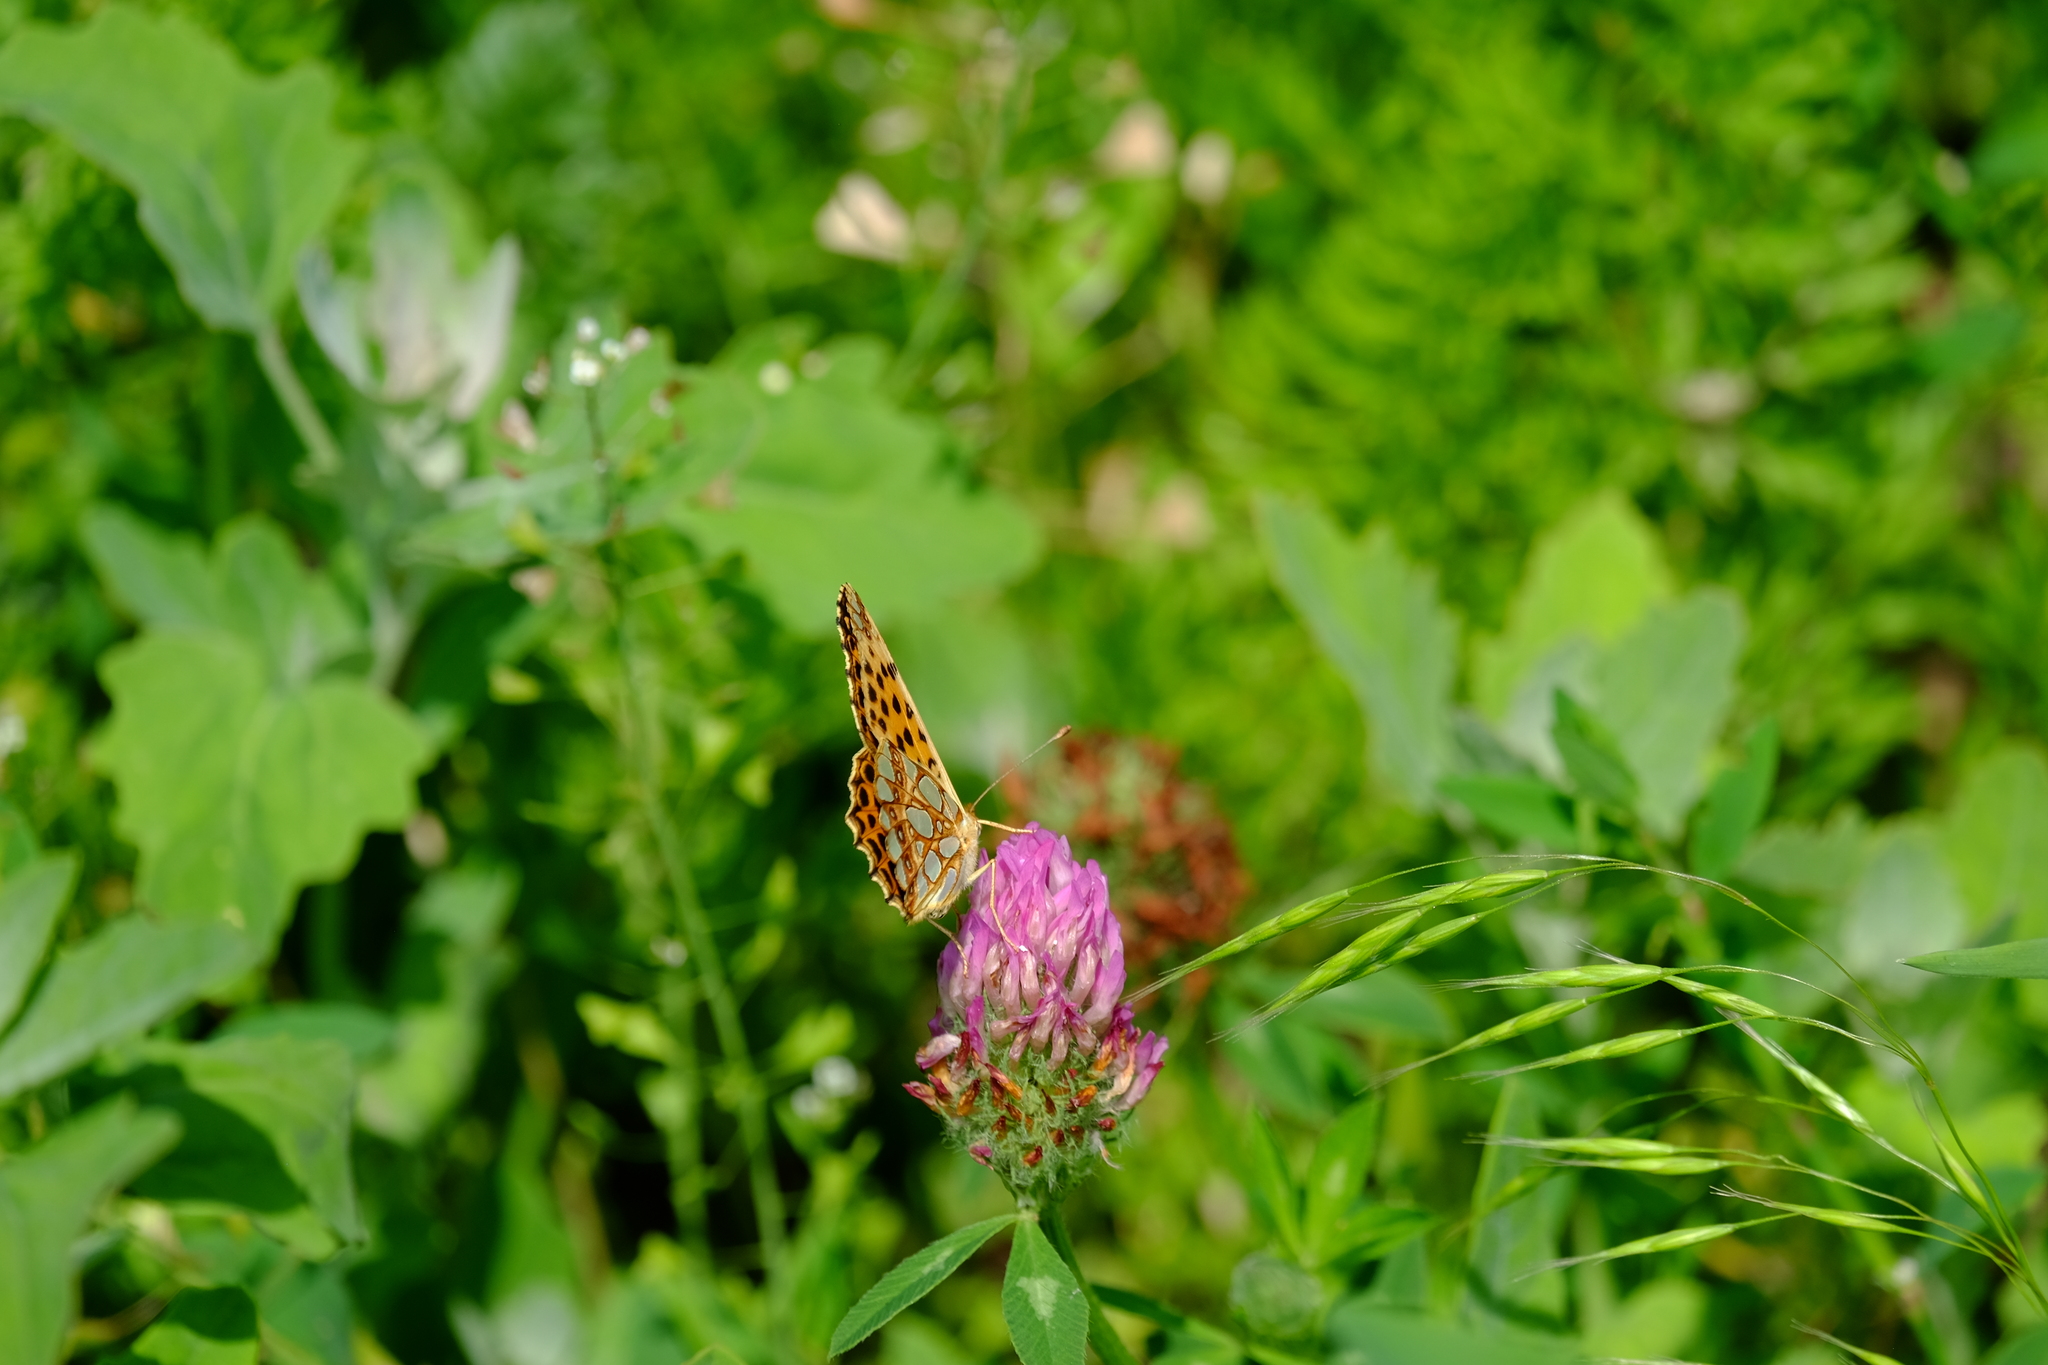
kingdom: Animalia
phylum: Arthropoda
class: Insecta
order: Lepidoptera
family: Nymphalidae
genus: Issoria
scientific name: Issoria lathonia
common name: Queen of spain fritillary
